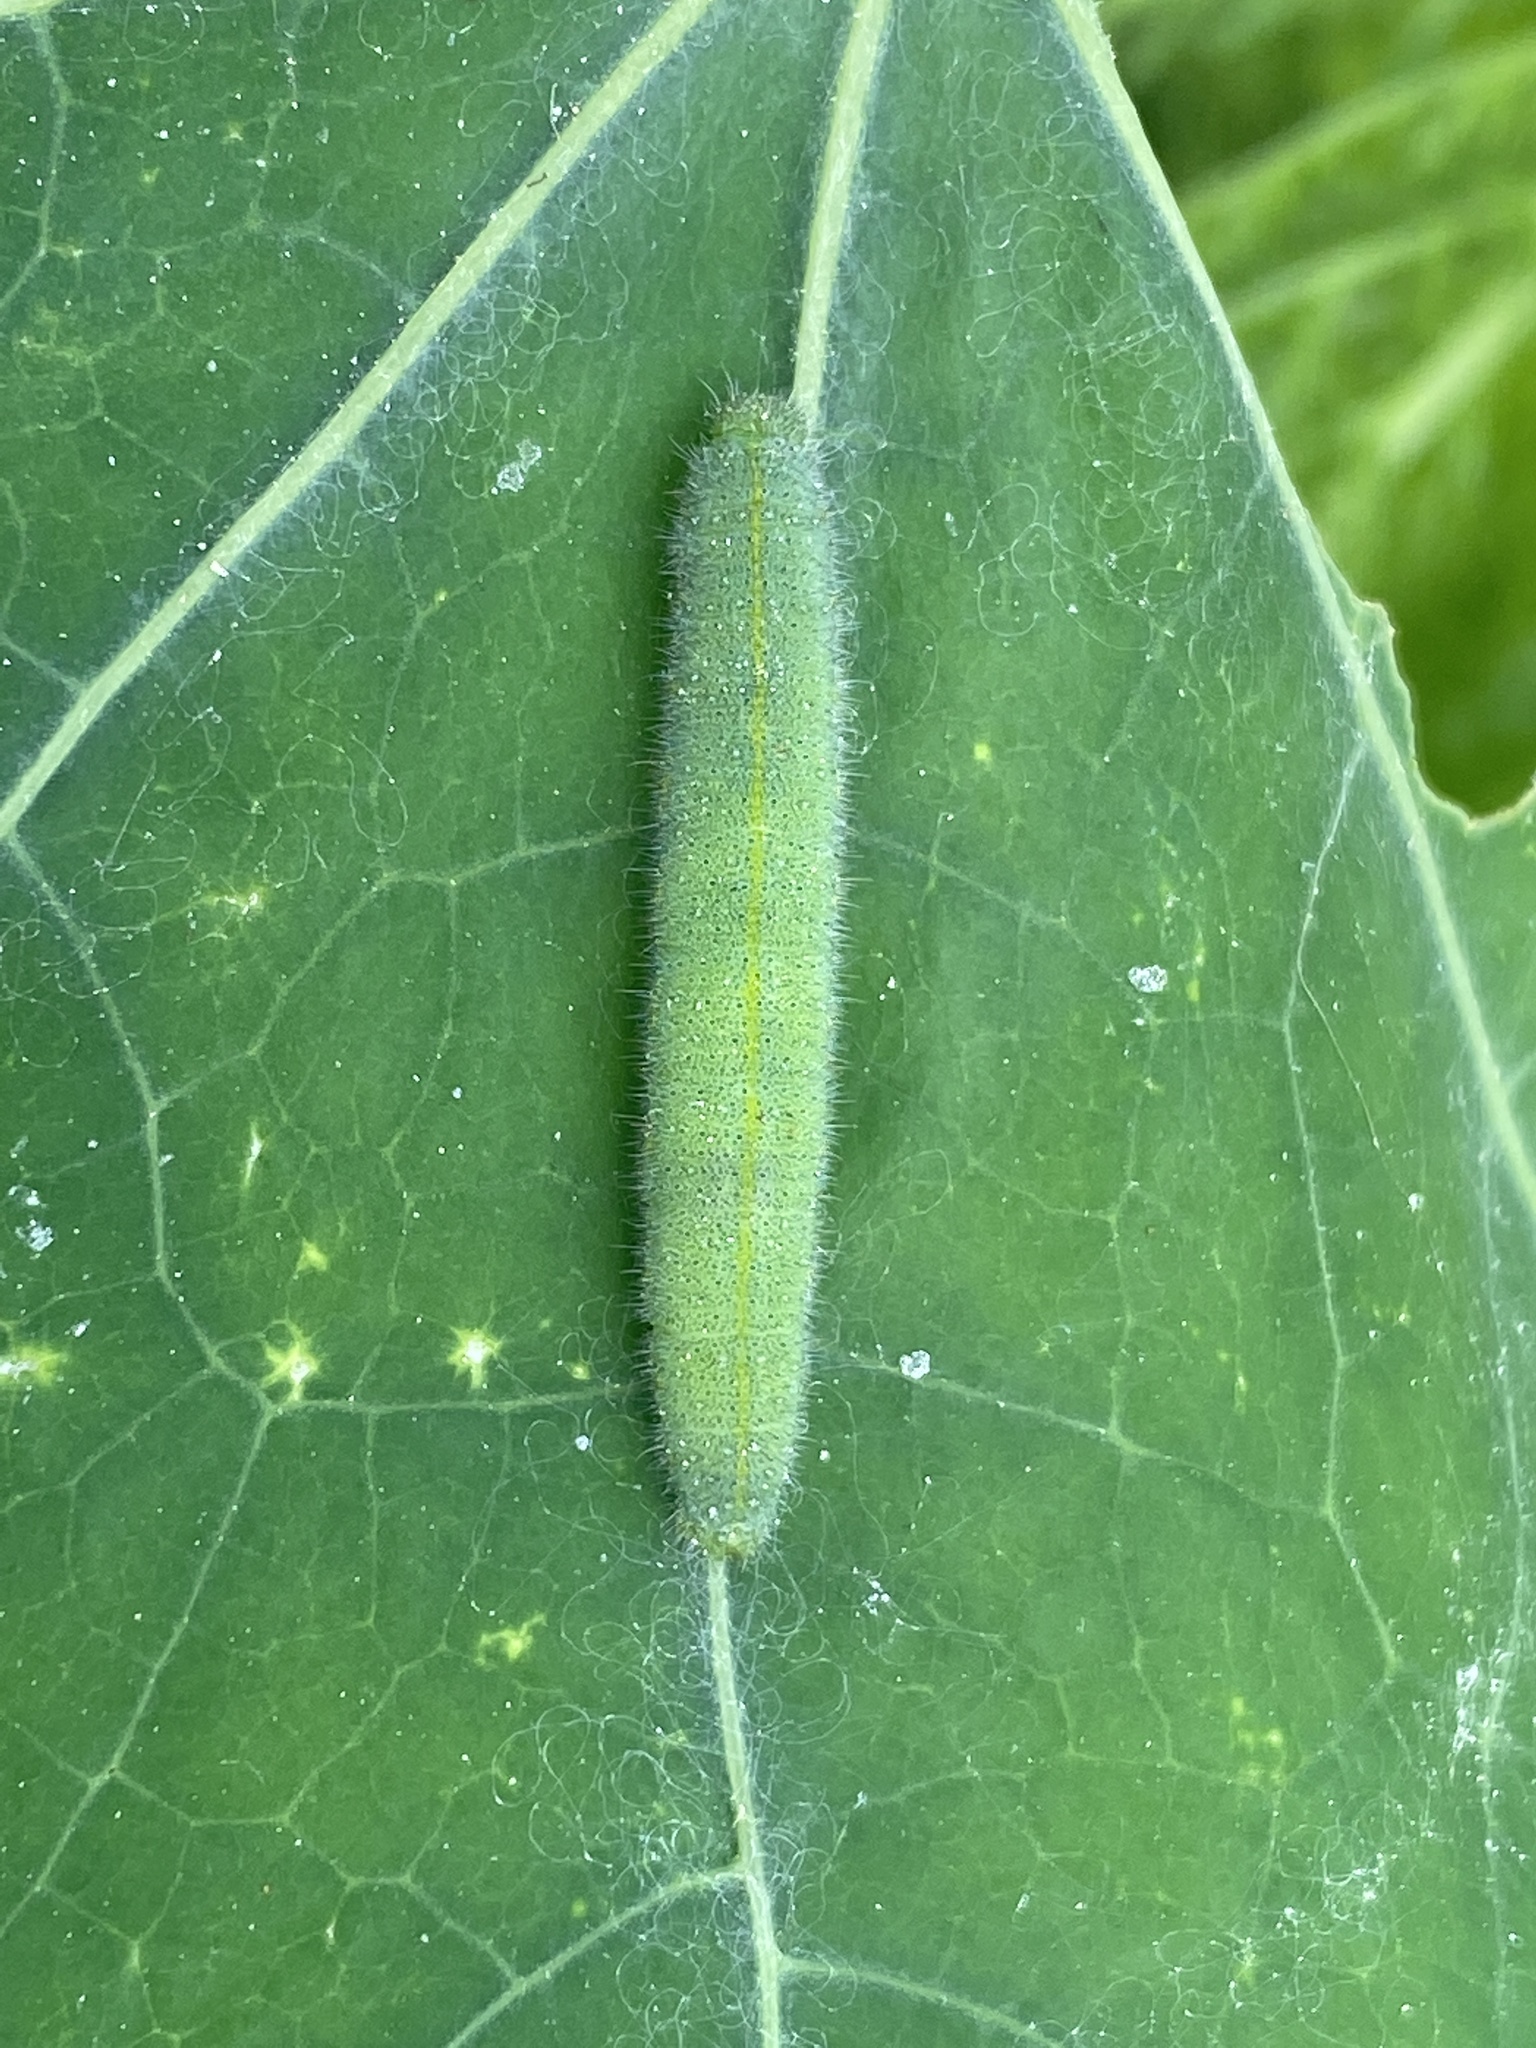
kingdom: Animalia
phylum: Arthropoda
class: Insecta
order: Lepidoptera
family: Pieridae
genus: Pieris
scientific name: Pieris rapae
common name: Small white
